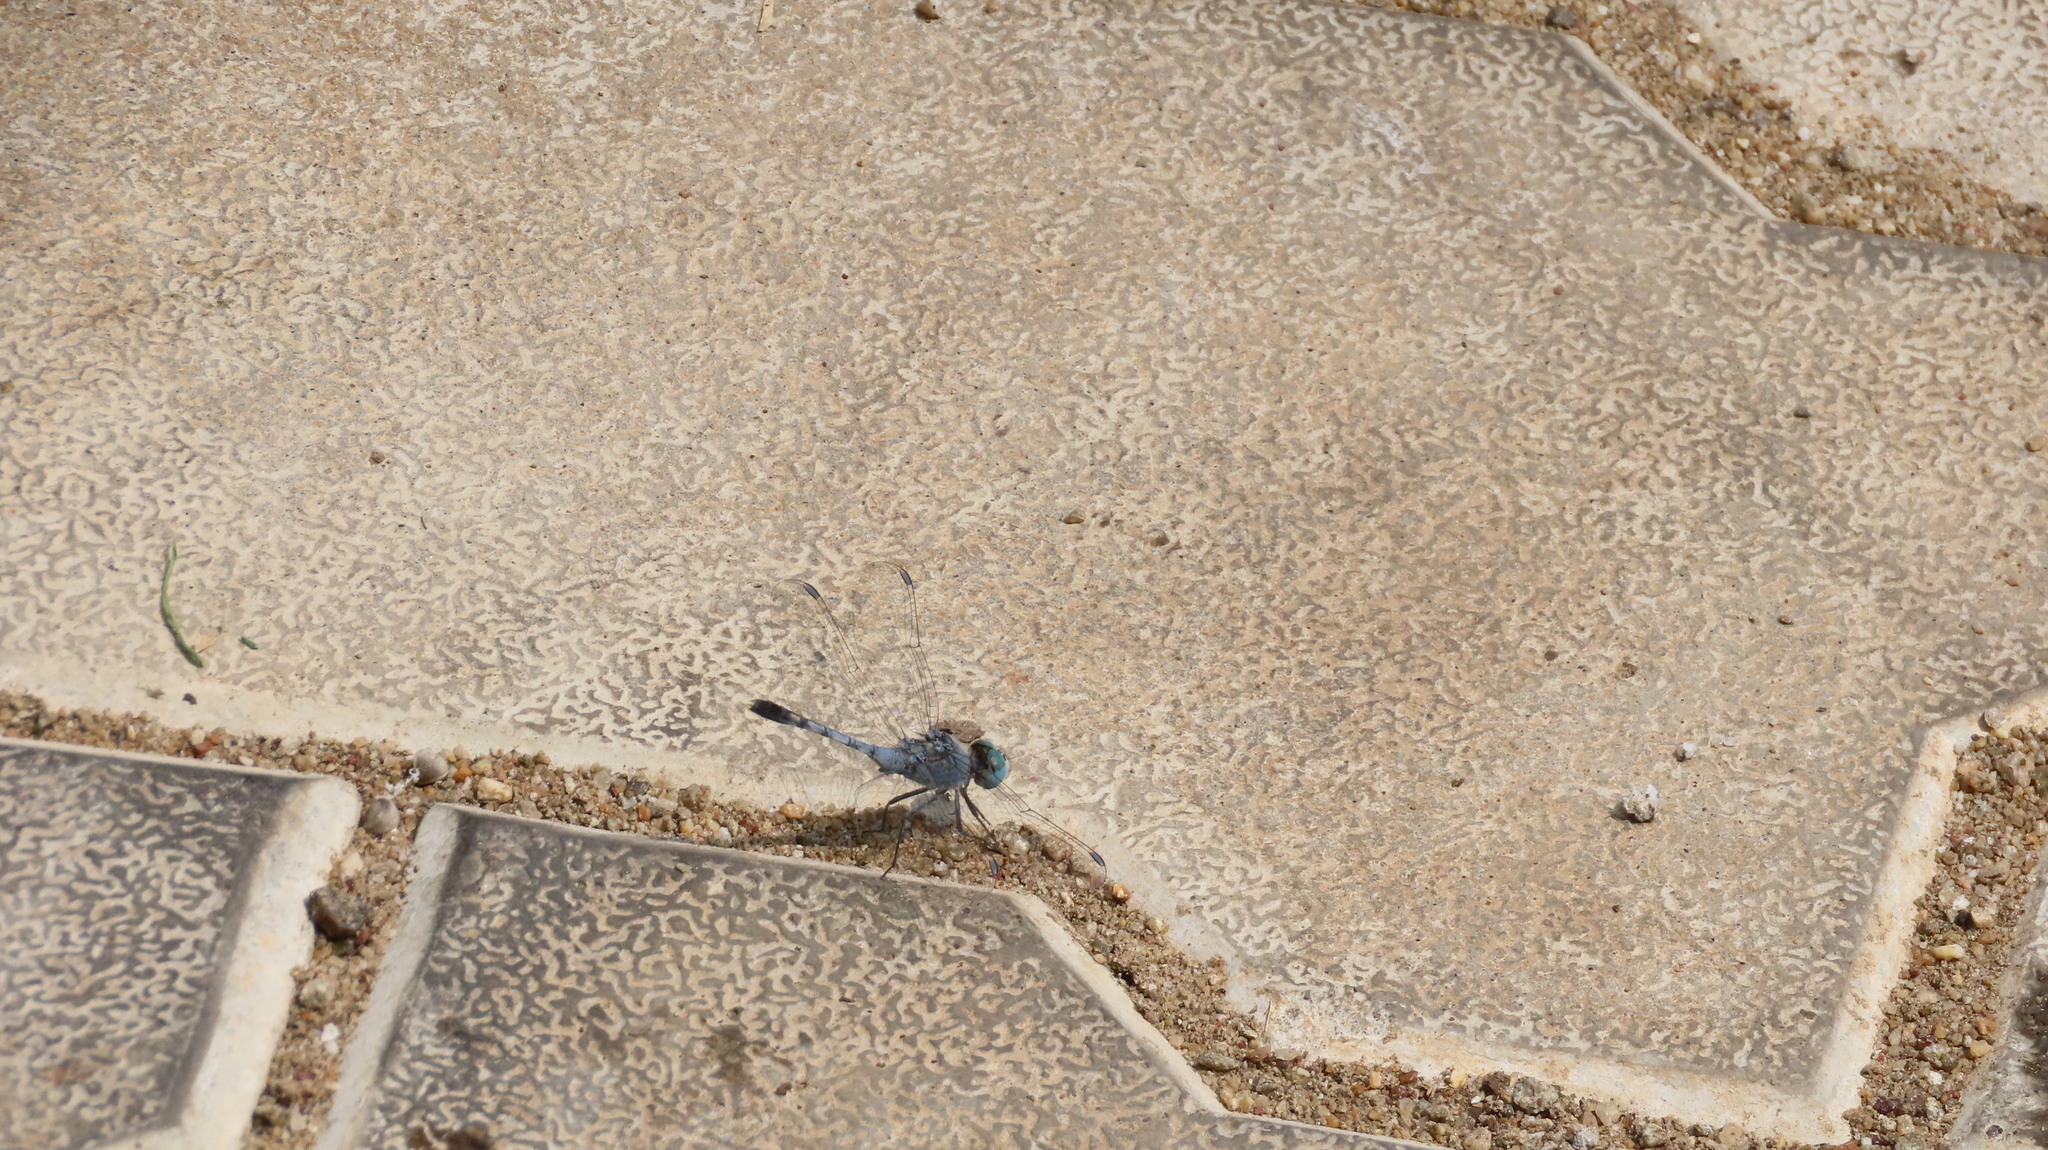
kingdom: Animalia
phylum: Arthropoda
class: Insecta
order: Odonata
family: Libellulidae
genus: Diplacodes
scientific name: Diplacodes trivialis
